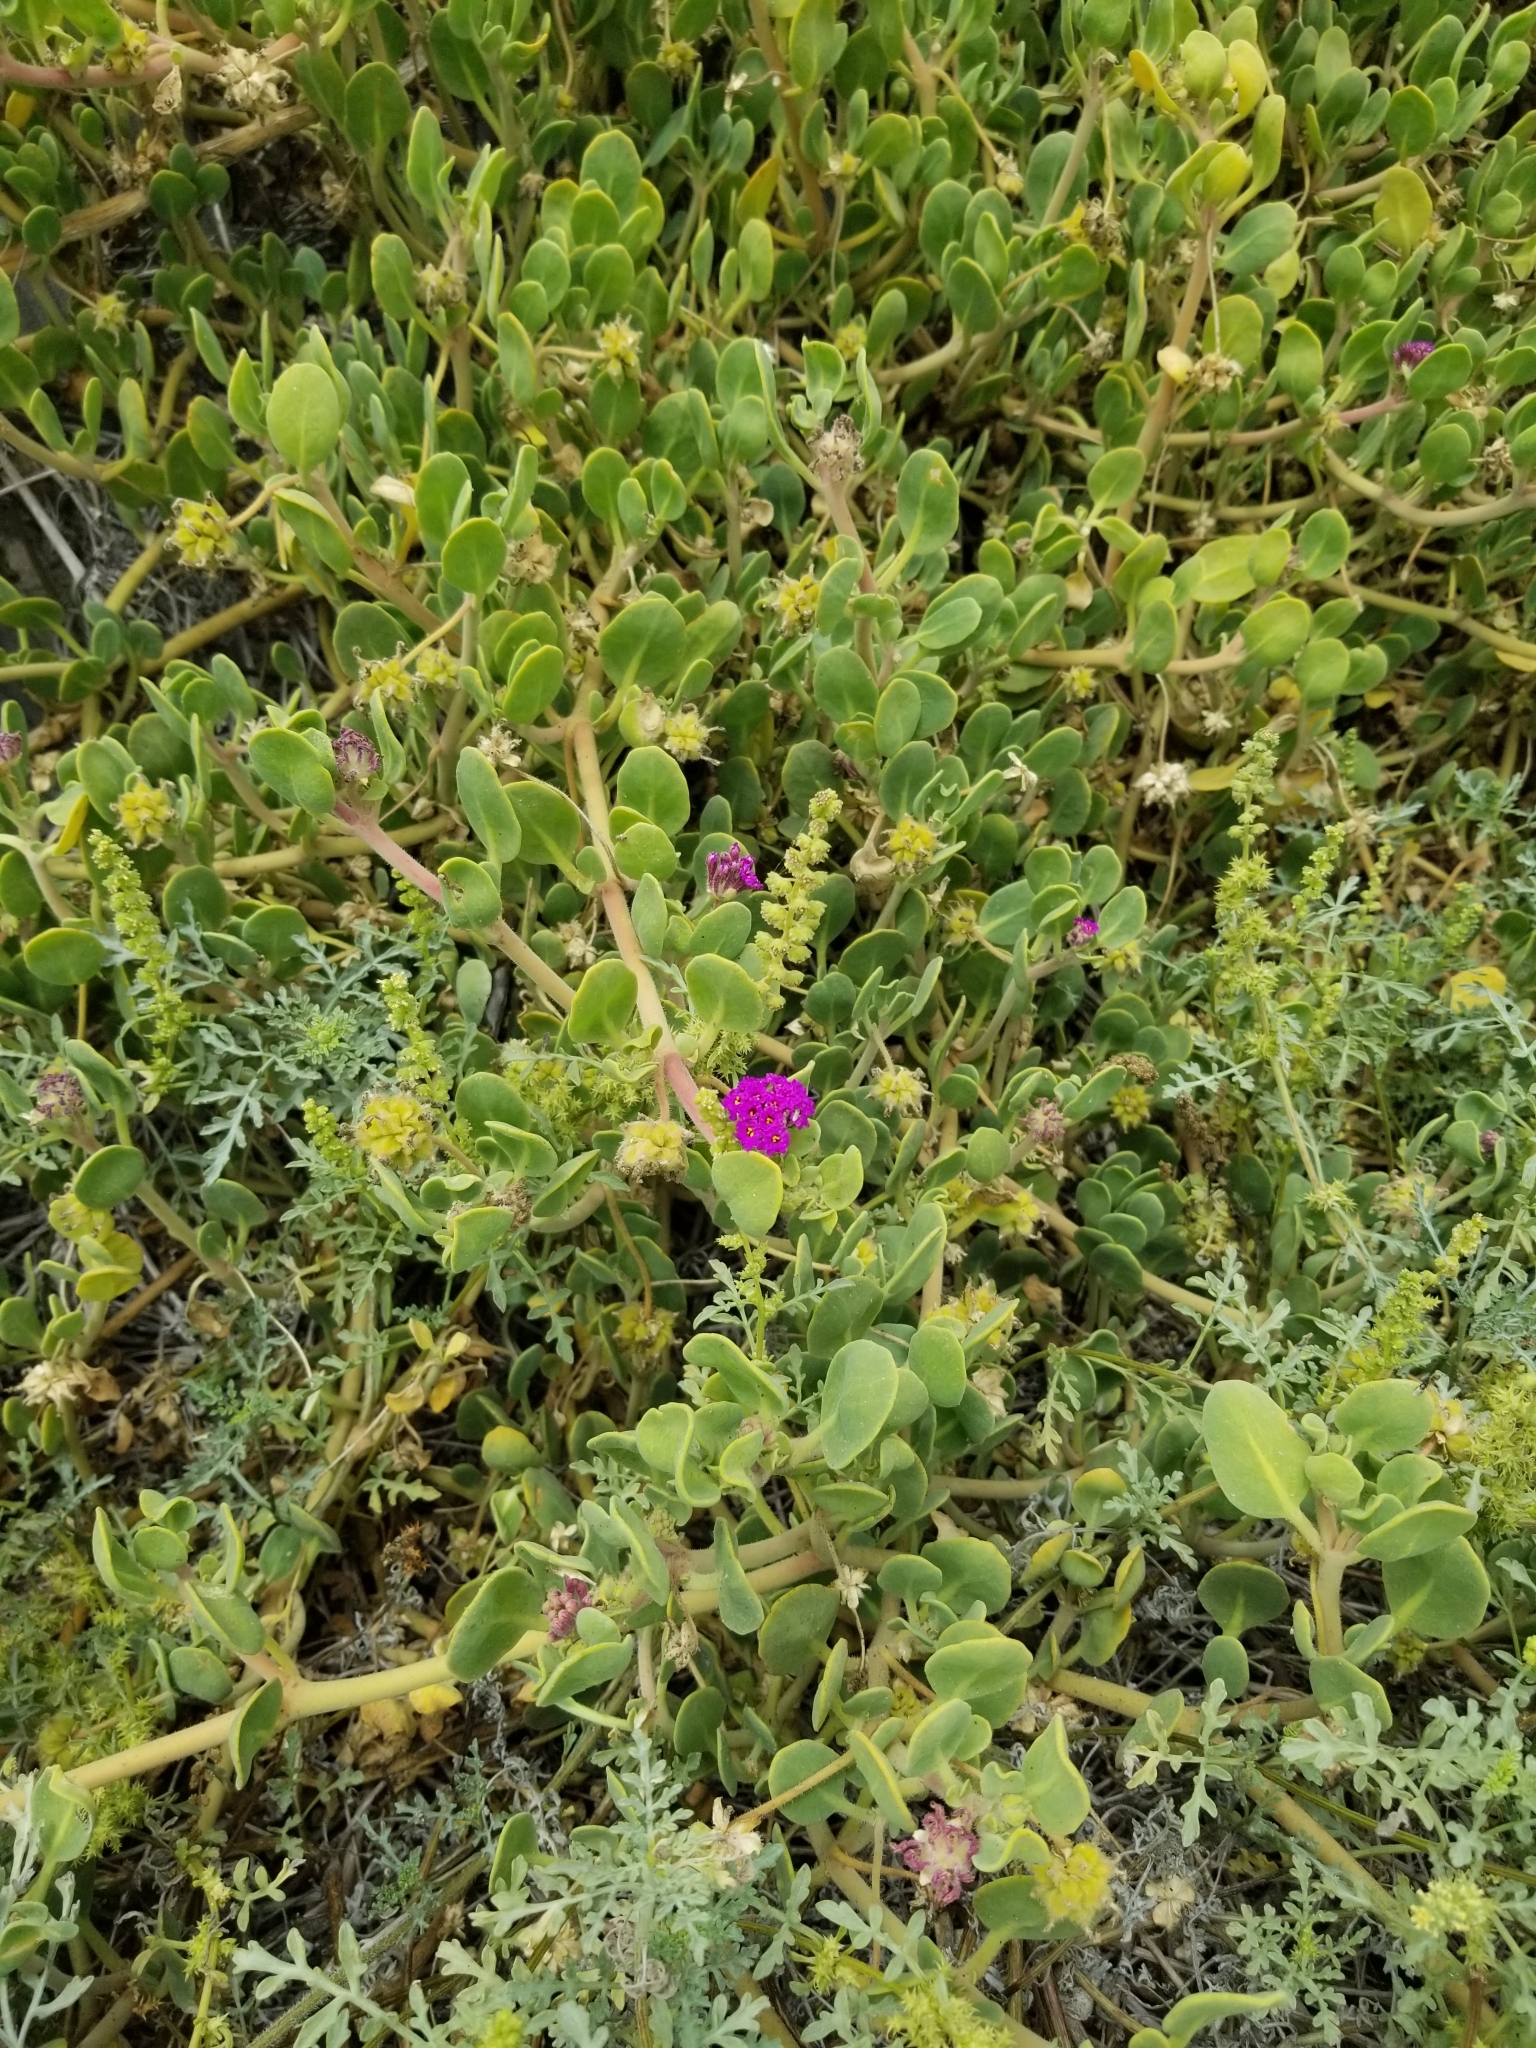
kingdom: Plantae
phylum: Tracheophyta
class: Magnoliopsida
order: Caryophyllales
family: Nyctaginaceae
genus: Abronia
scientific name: Abronia maritima
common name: Red sand-verbena
